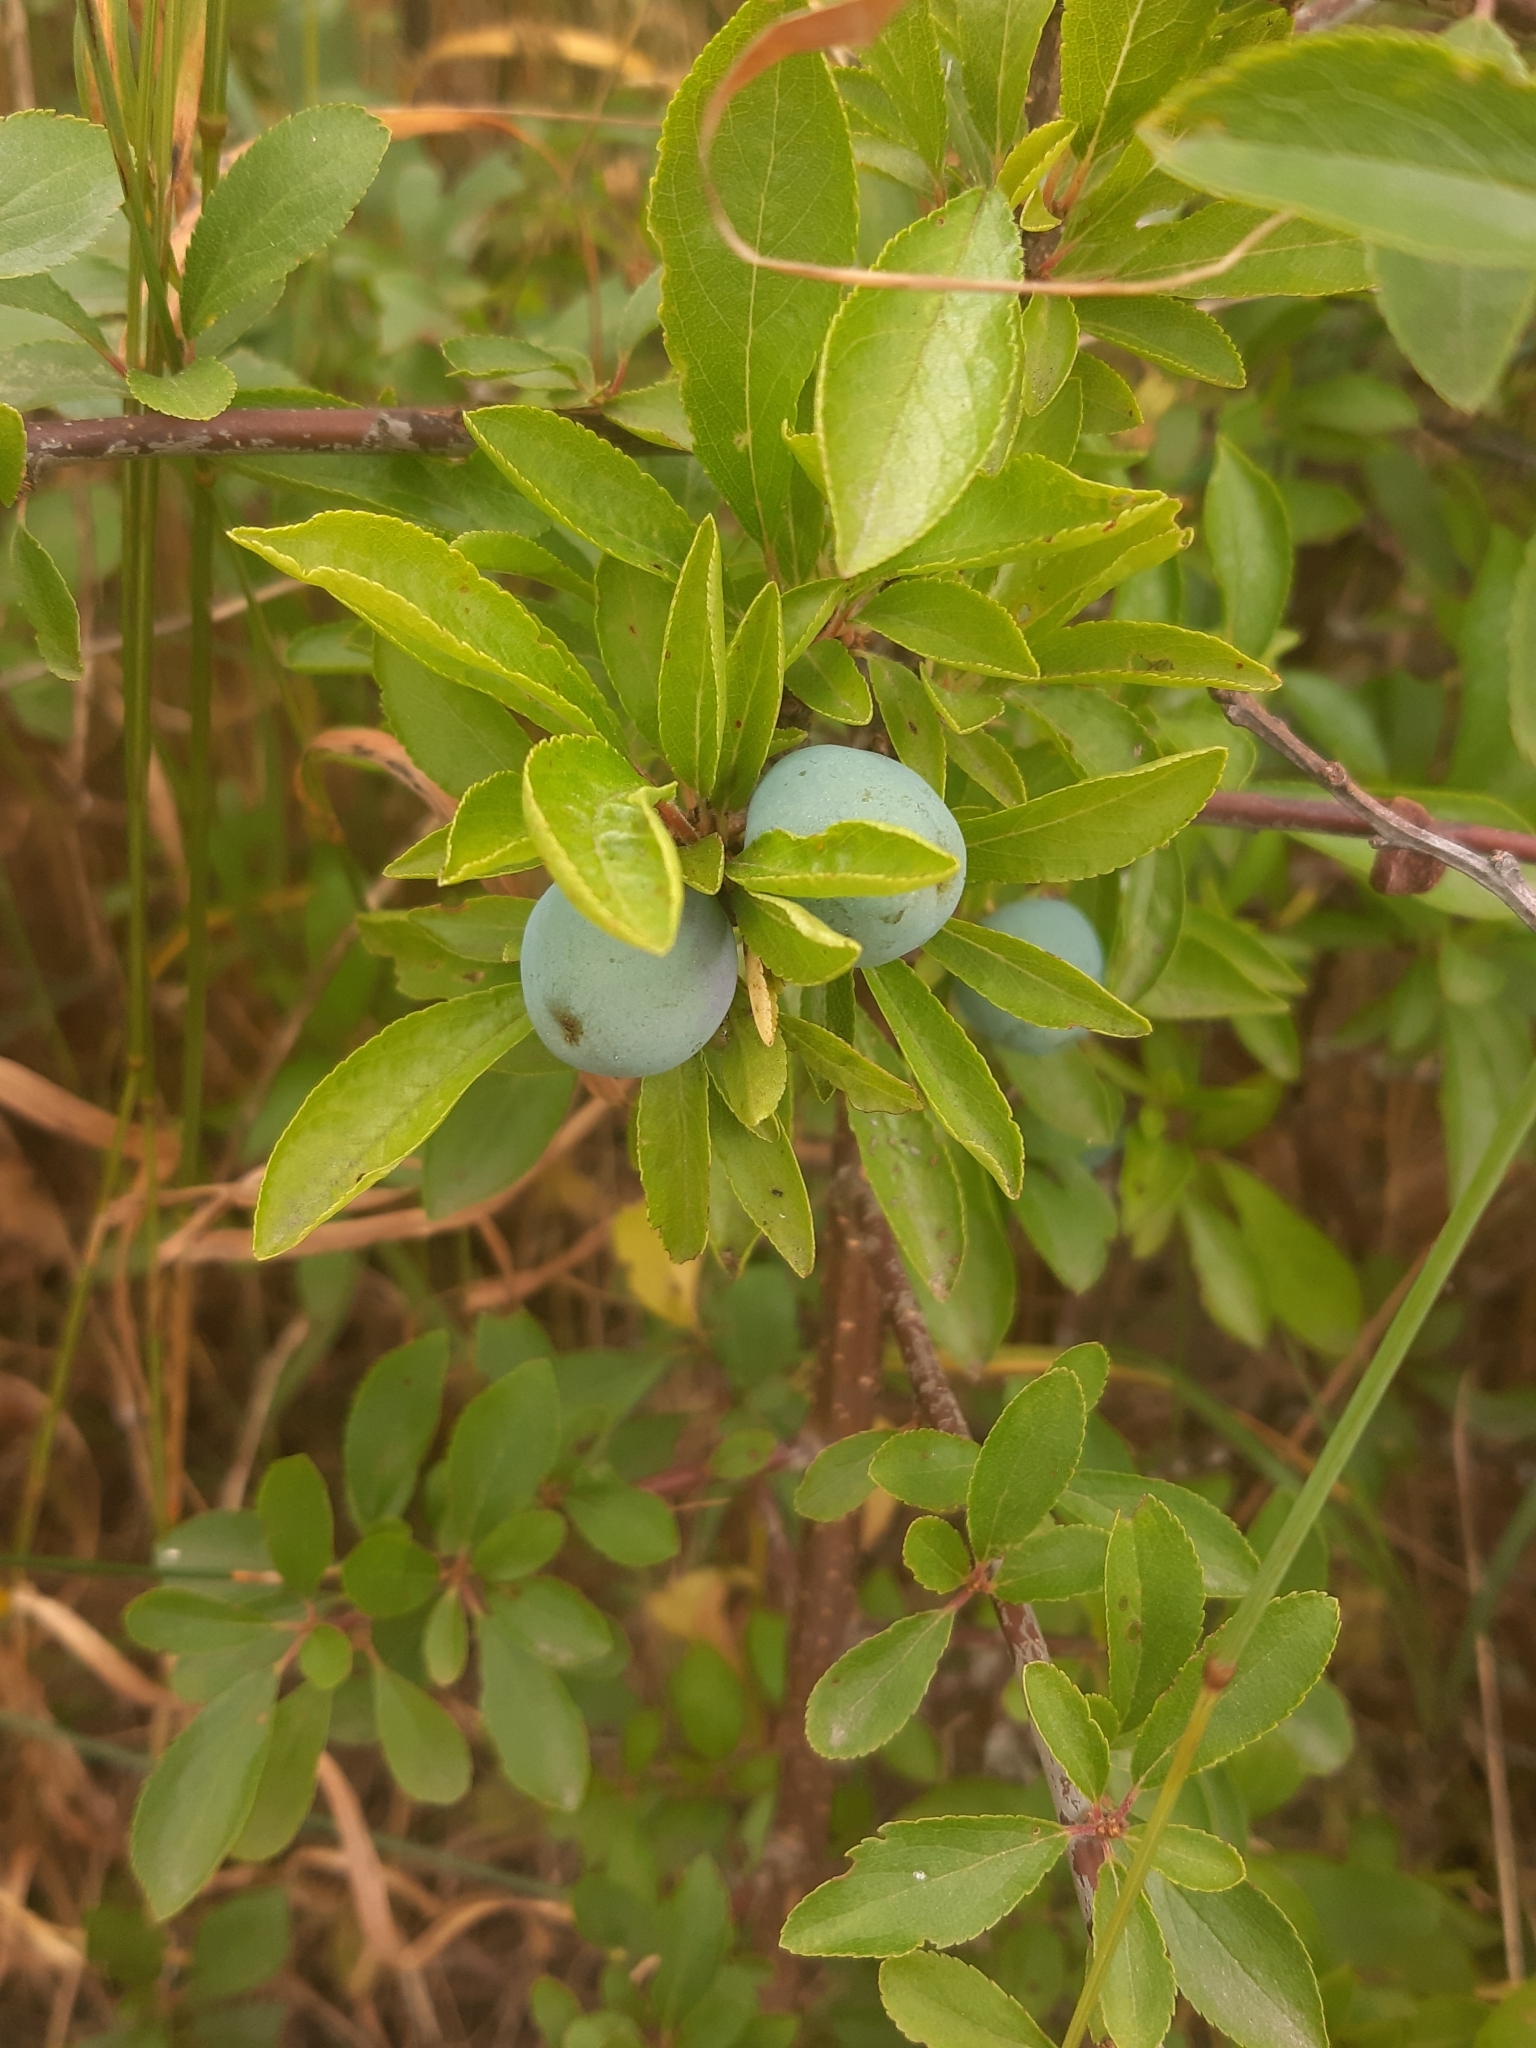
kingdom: Plantae
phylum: Tracheophyta
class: Magnoliopsida
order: Rosales
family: Rosaceae
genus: Prunus
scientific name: Prunus spinosa
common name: Blackthorn
